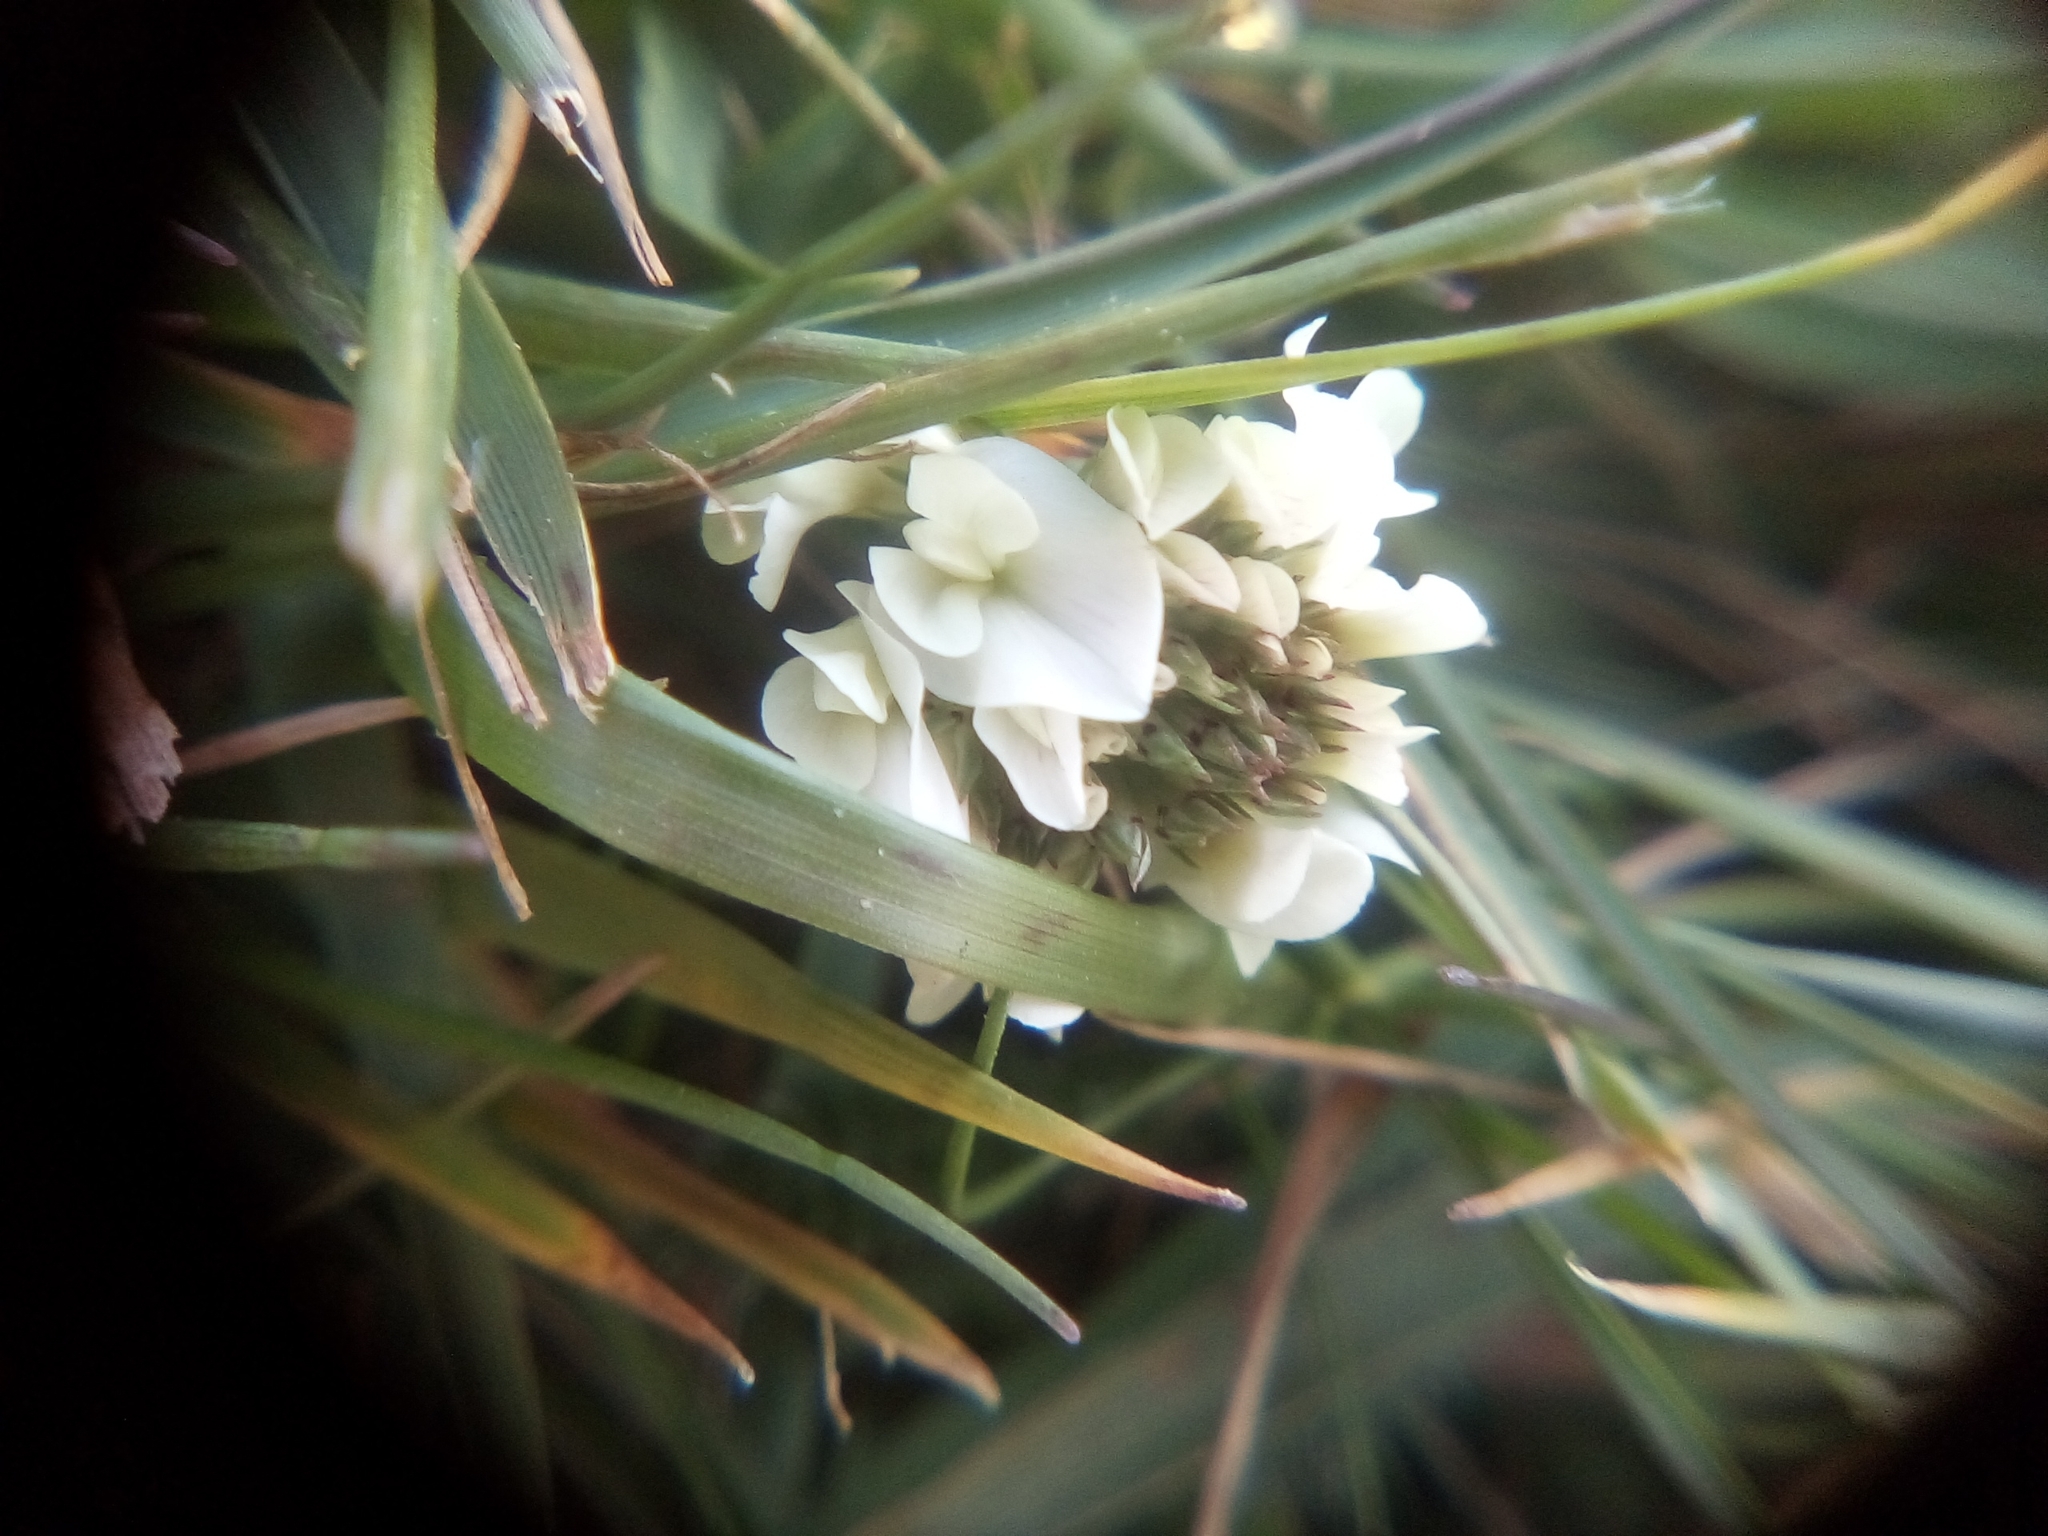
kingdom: Plantae
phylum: Tracheophyta
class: Magnoliopsida
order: Fabales
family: Fabaceae
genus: Trifolium
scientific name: Trifolium repens
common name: White clover
